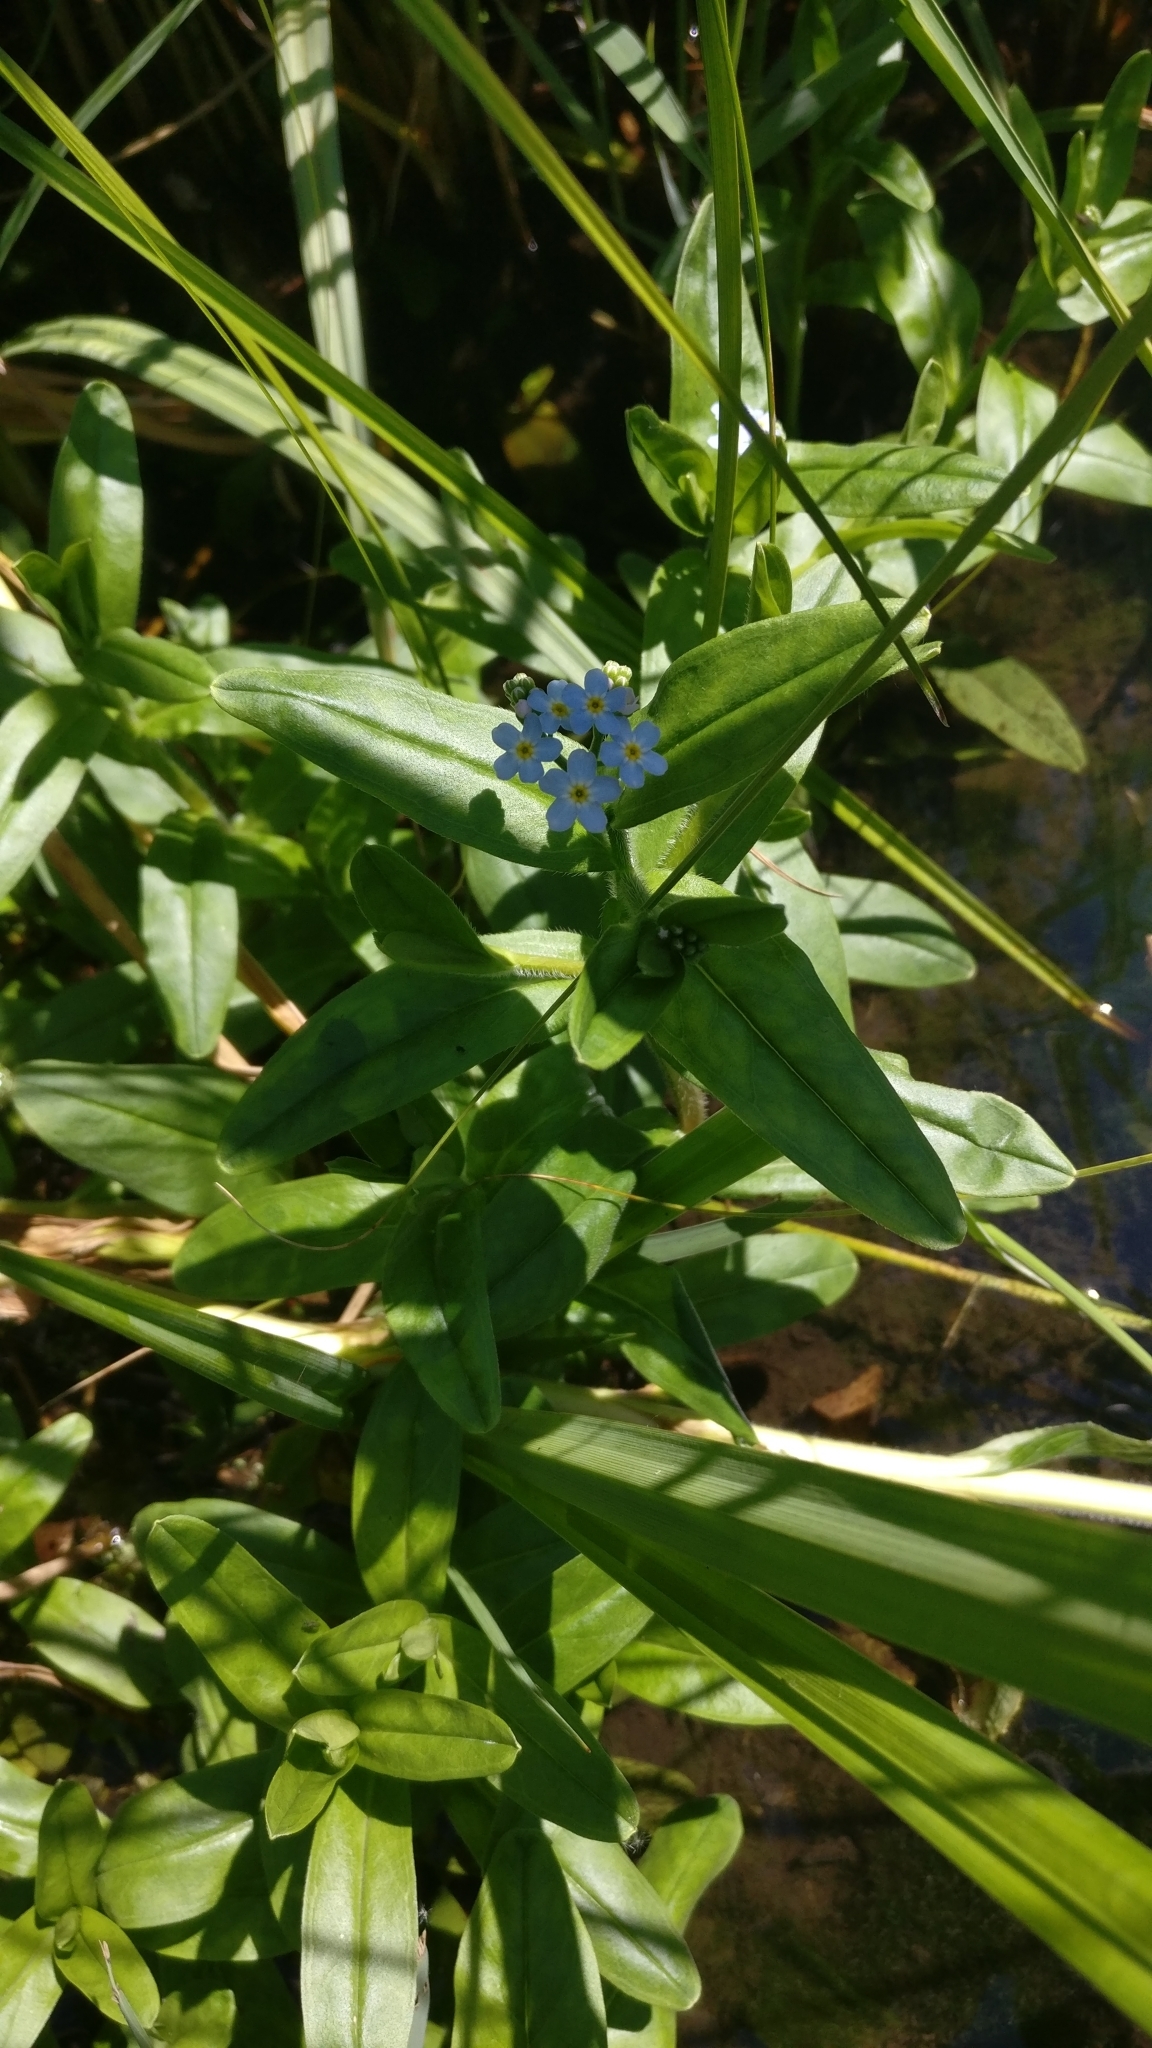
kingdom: Plantae
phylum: Tracheophyta
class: Magnoliopsida
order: Boraginales
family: Boraginaceae
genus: Myosotis
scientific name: Myosotis scorpioides
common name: Water forget-me-not
